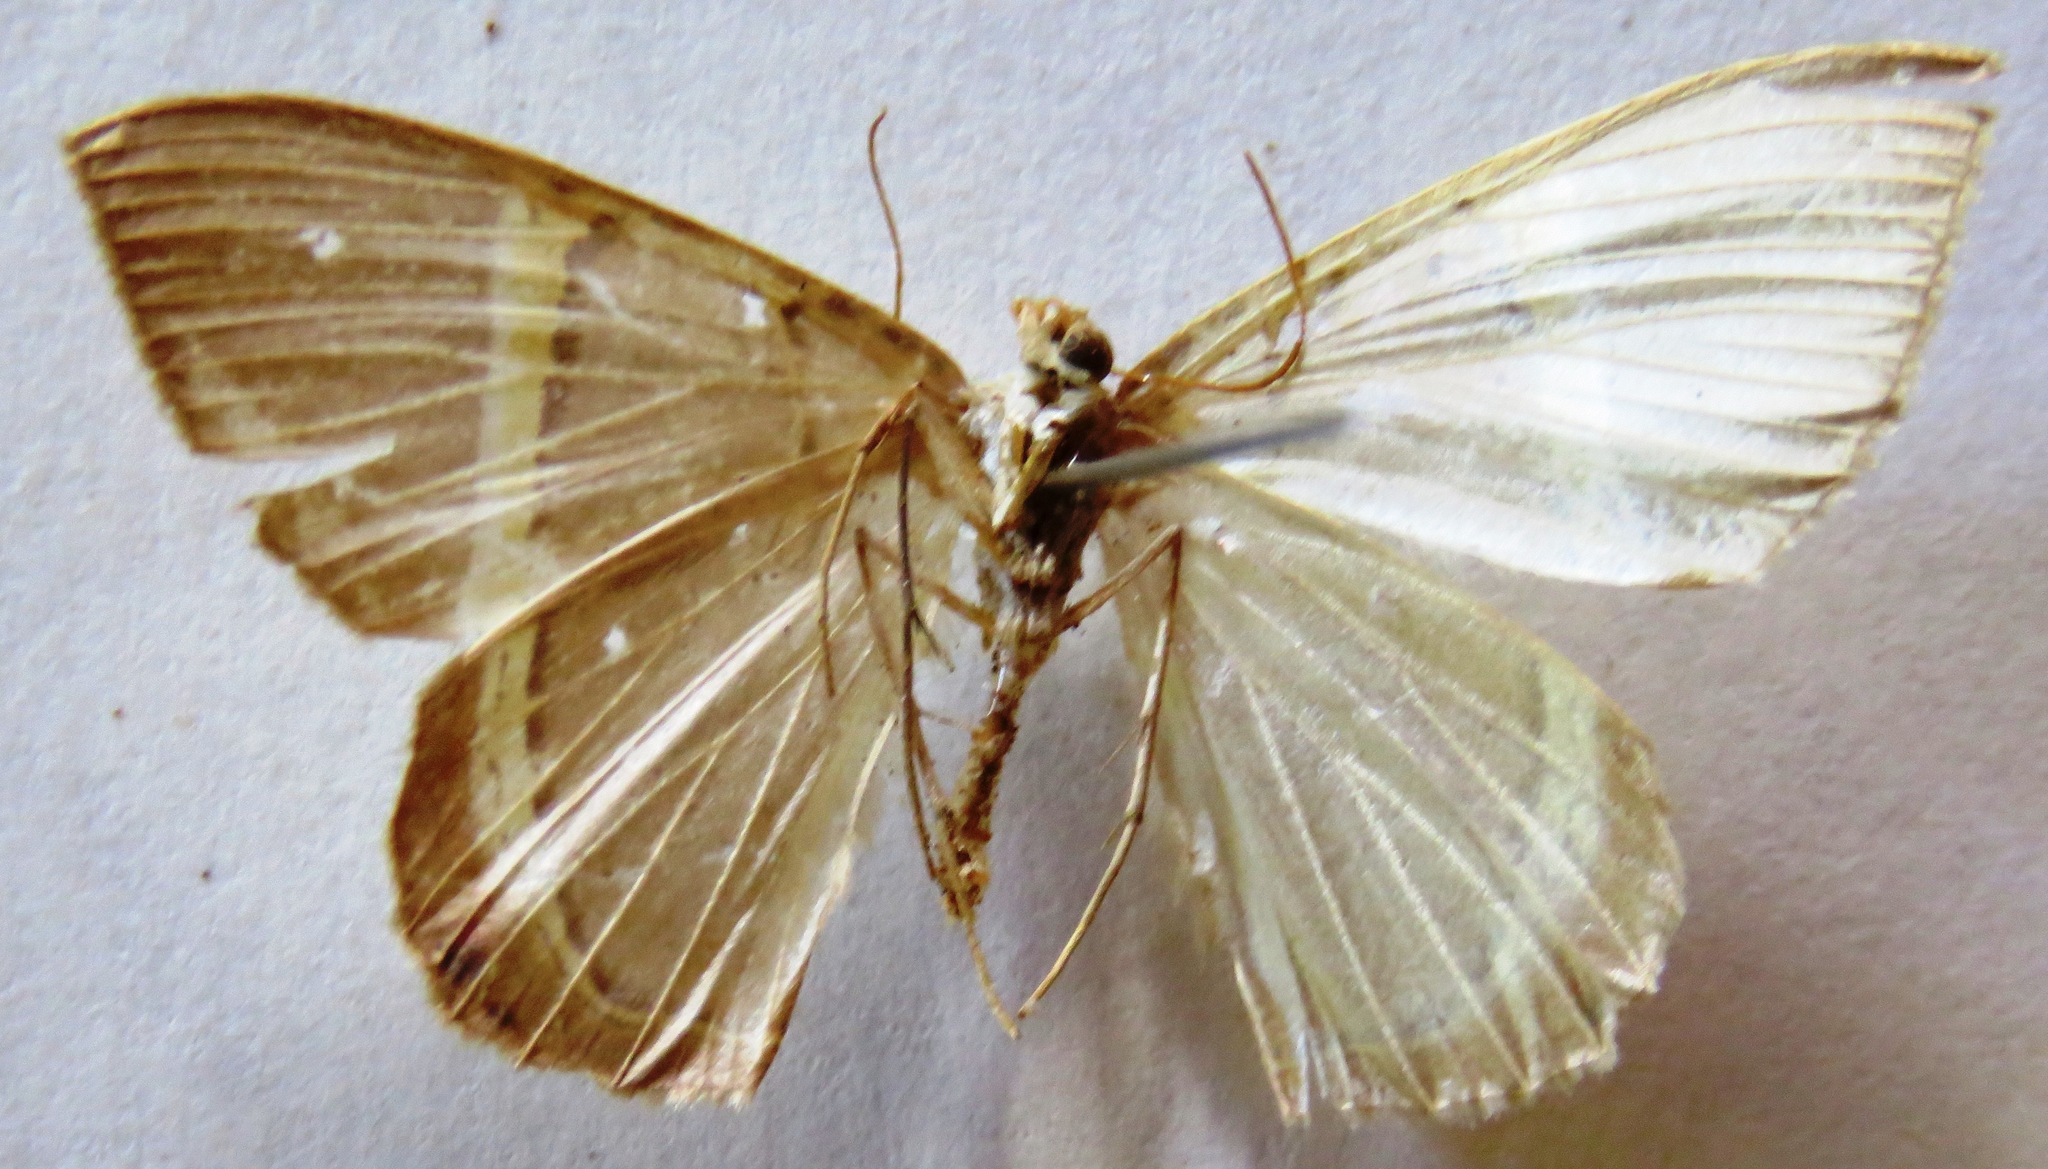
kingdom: Animalia
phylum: Arthropoda
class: Insecta
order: Lepidoptera
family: Geometridae
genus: Phrygionis
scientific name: Phrygionis privignaria
